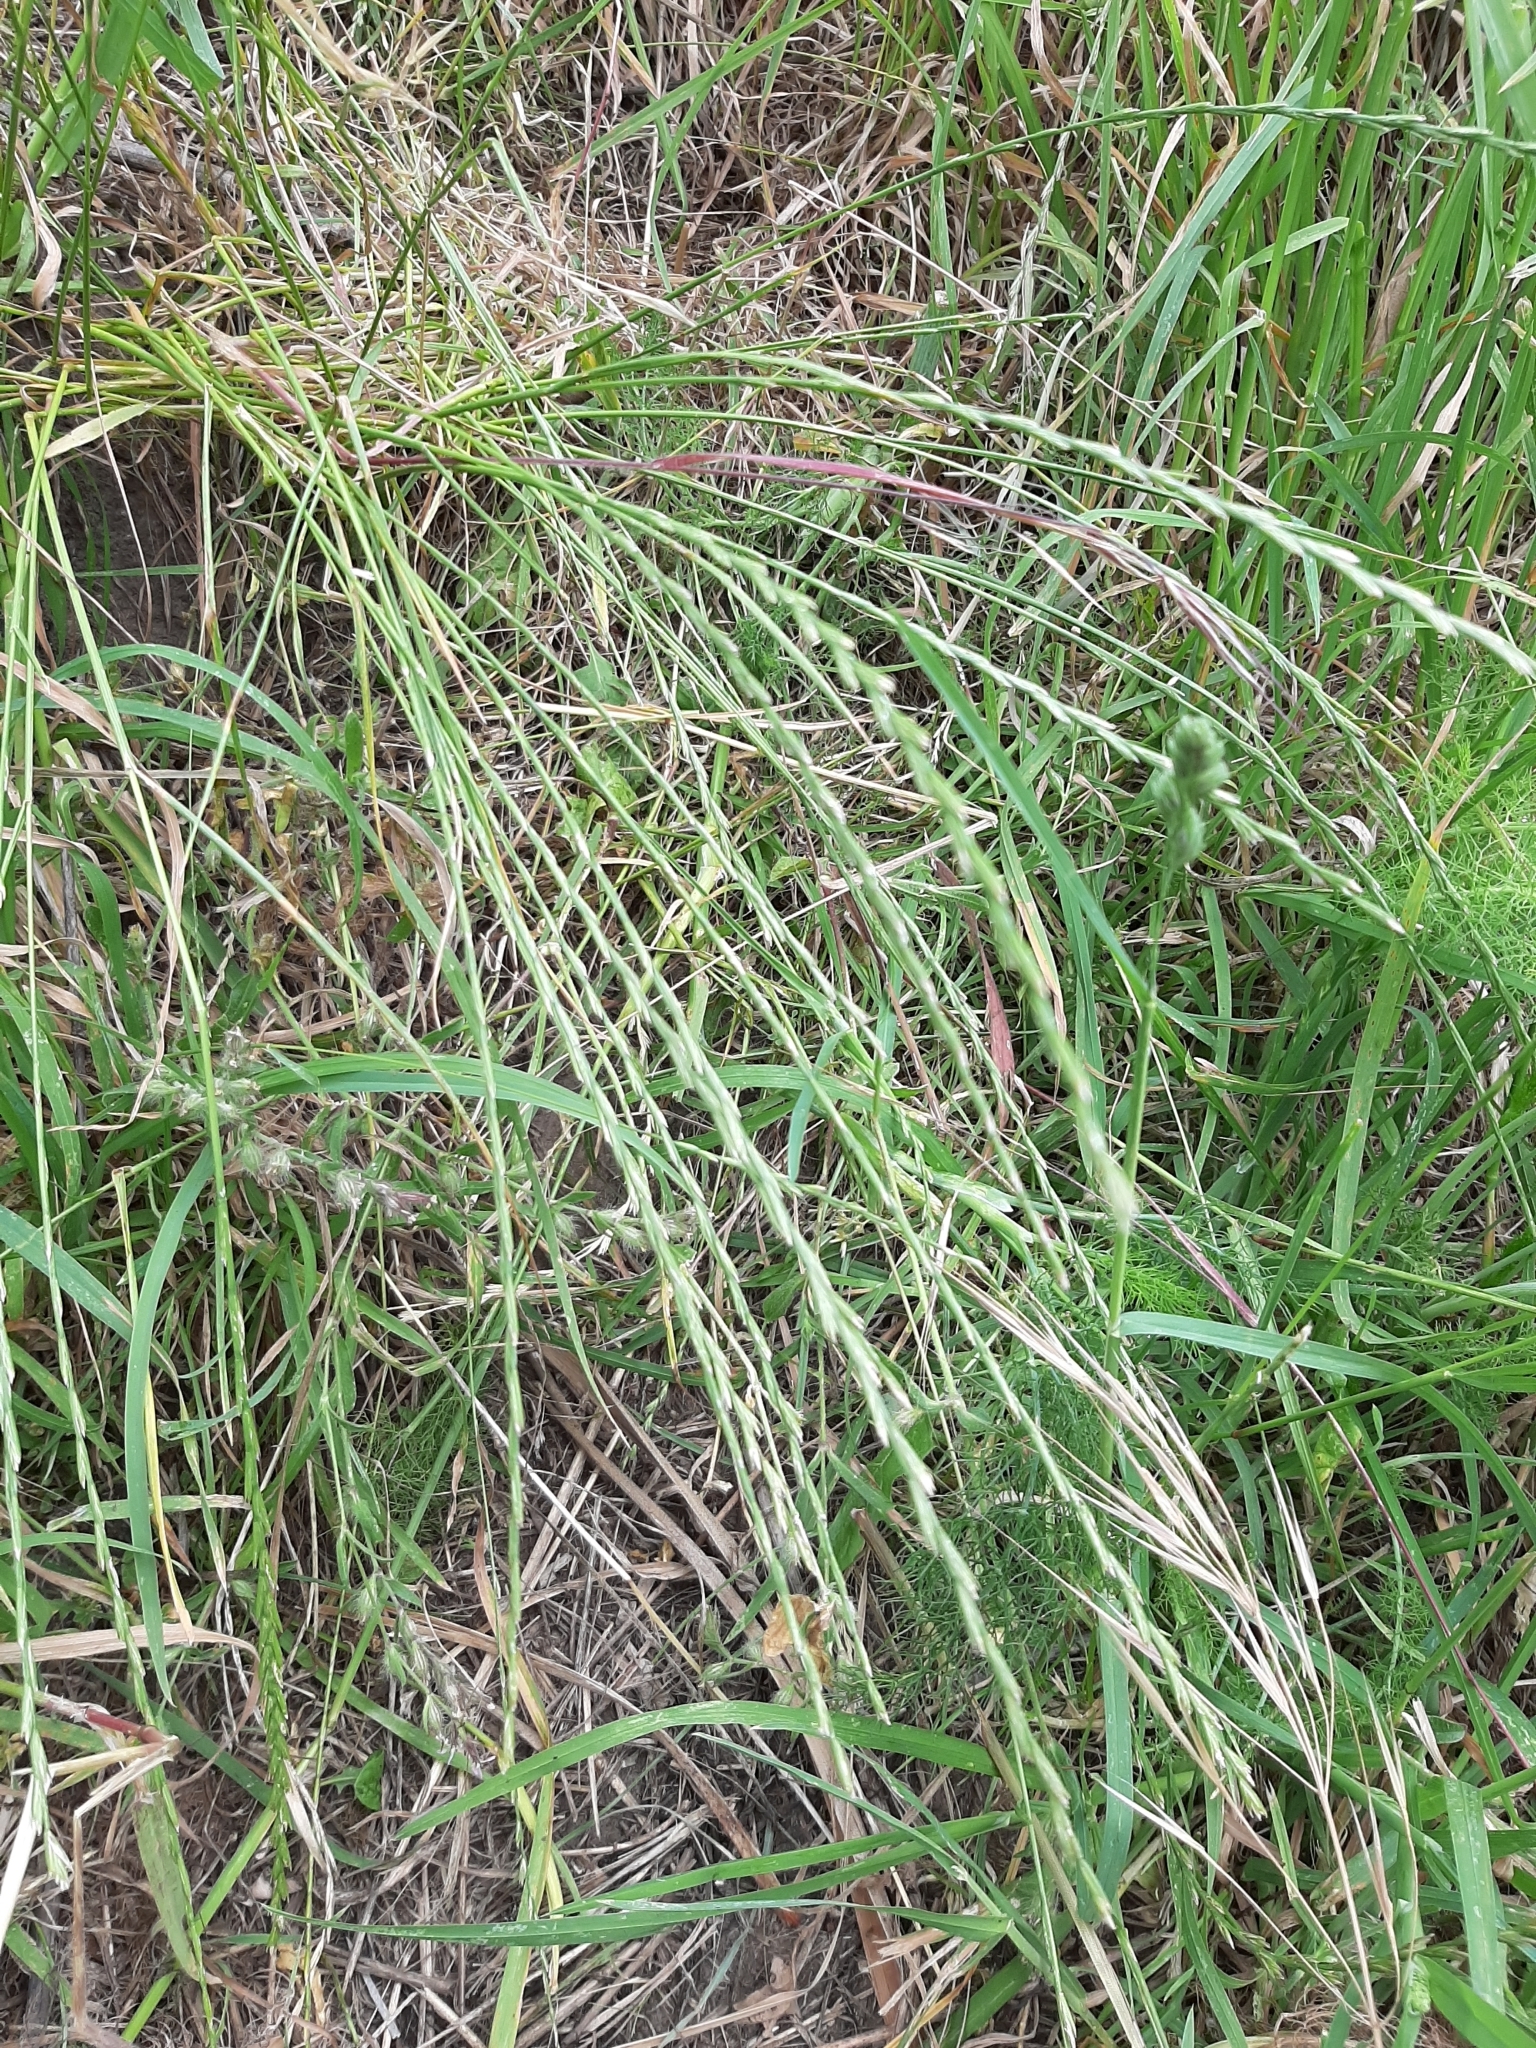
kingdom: Plantae
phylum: Tracheophyta
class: Liliopsida
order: Poales
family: Poaceae
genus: Lolium
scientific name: Lolium perenne
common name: Perennial ryegrass
